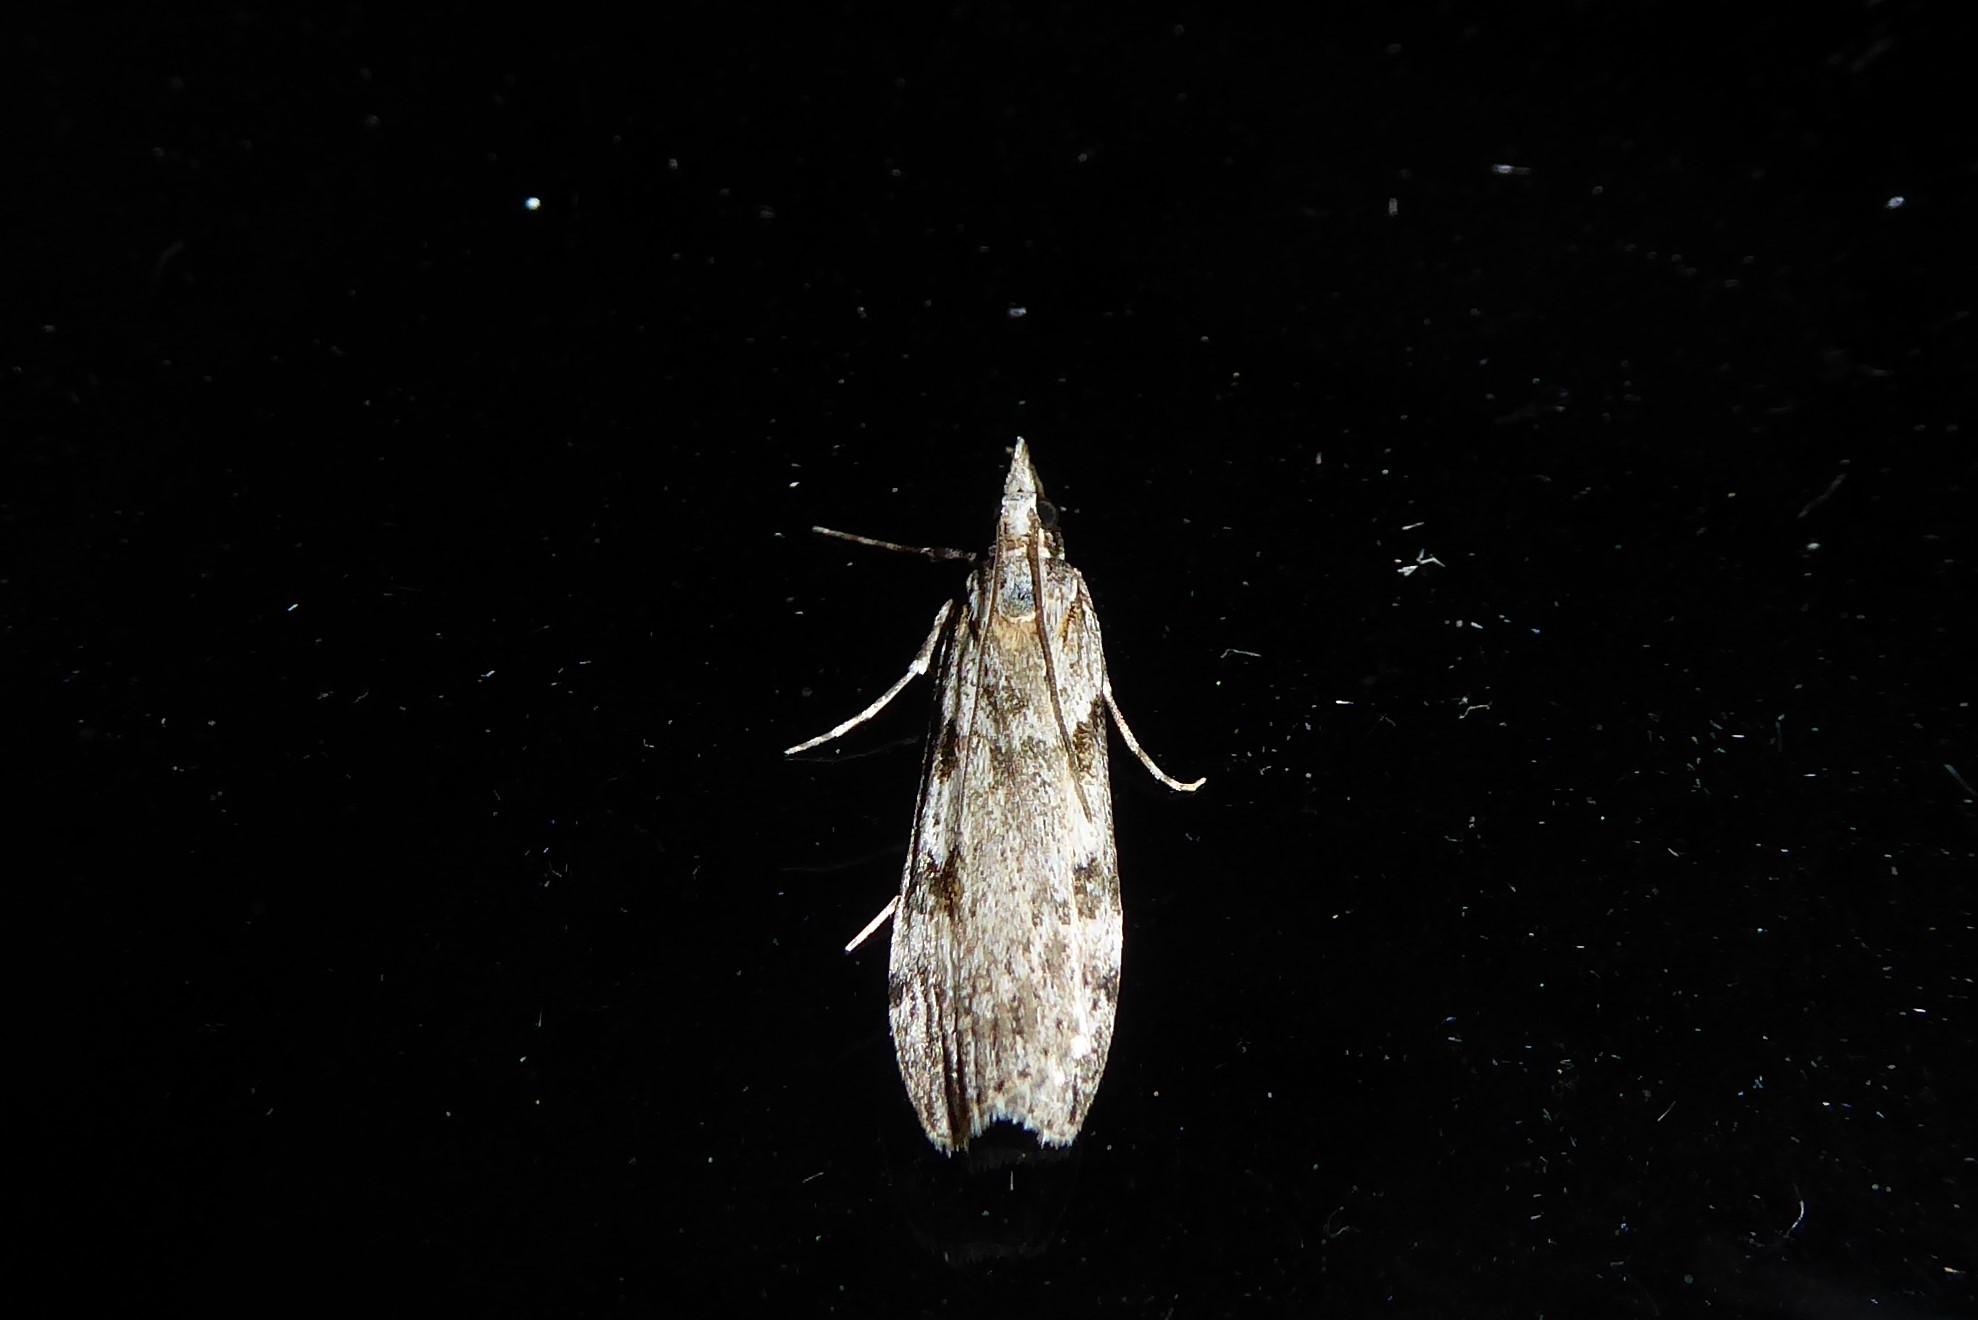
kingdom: Animalia
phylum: Arthropoda
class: Insecta
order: Lepidoptera
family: Crambidae
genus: Scoparia
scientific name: Scoparia halopis
